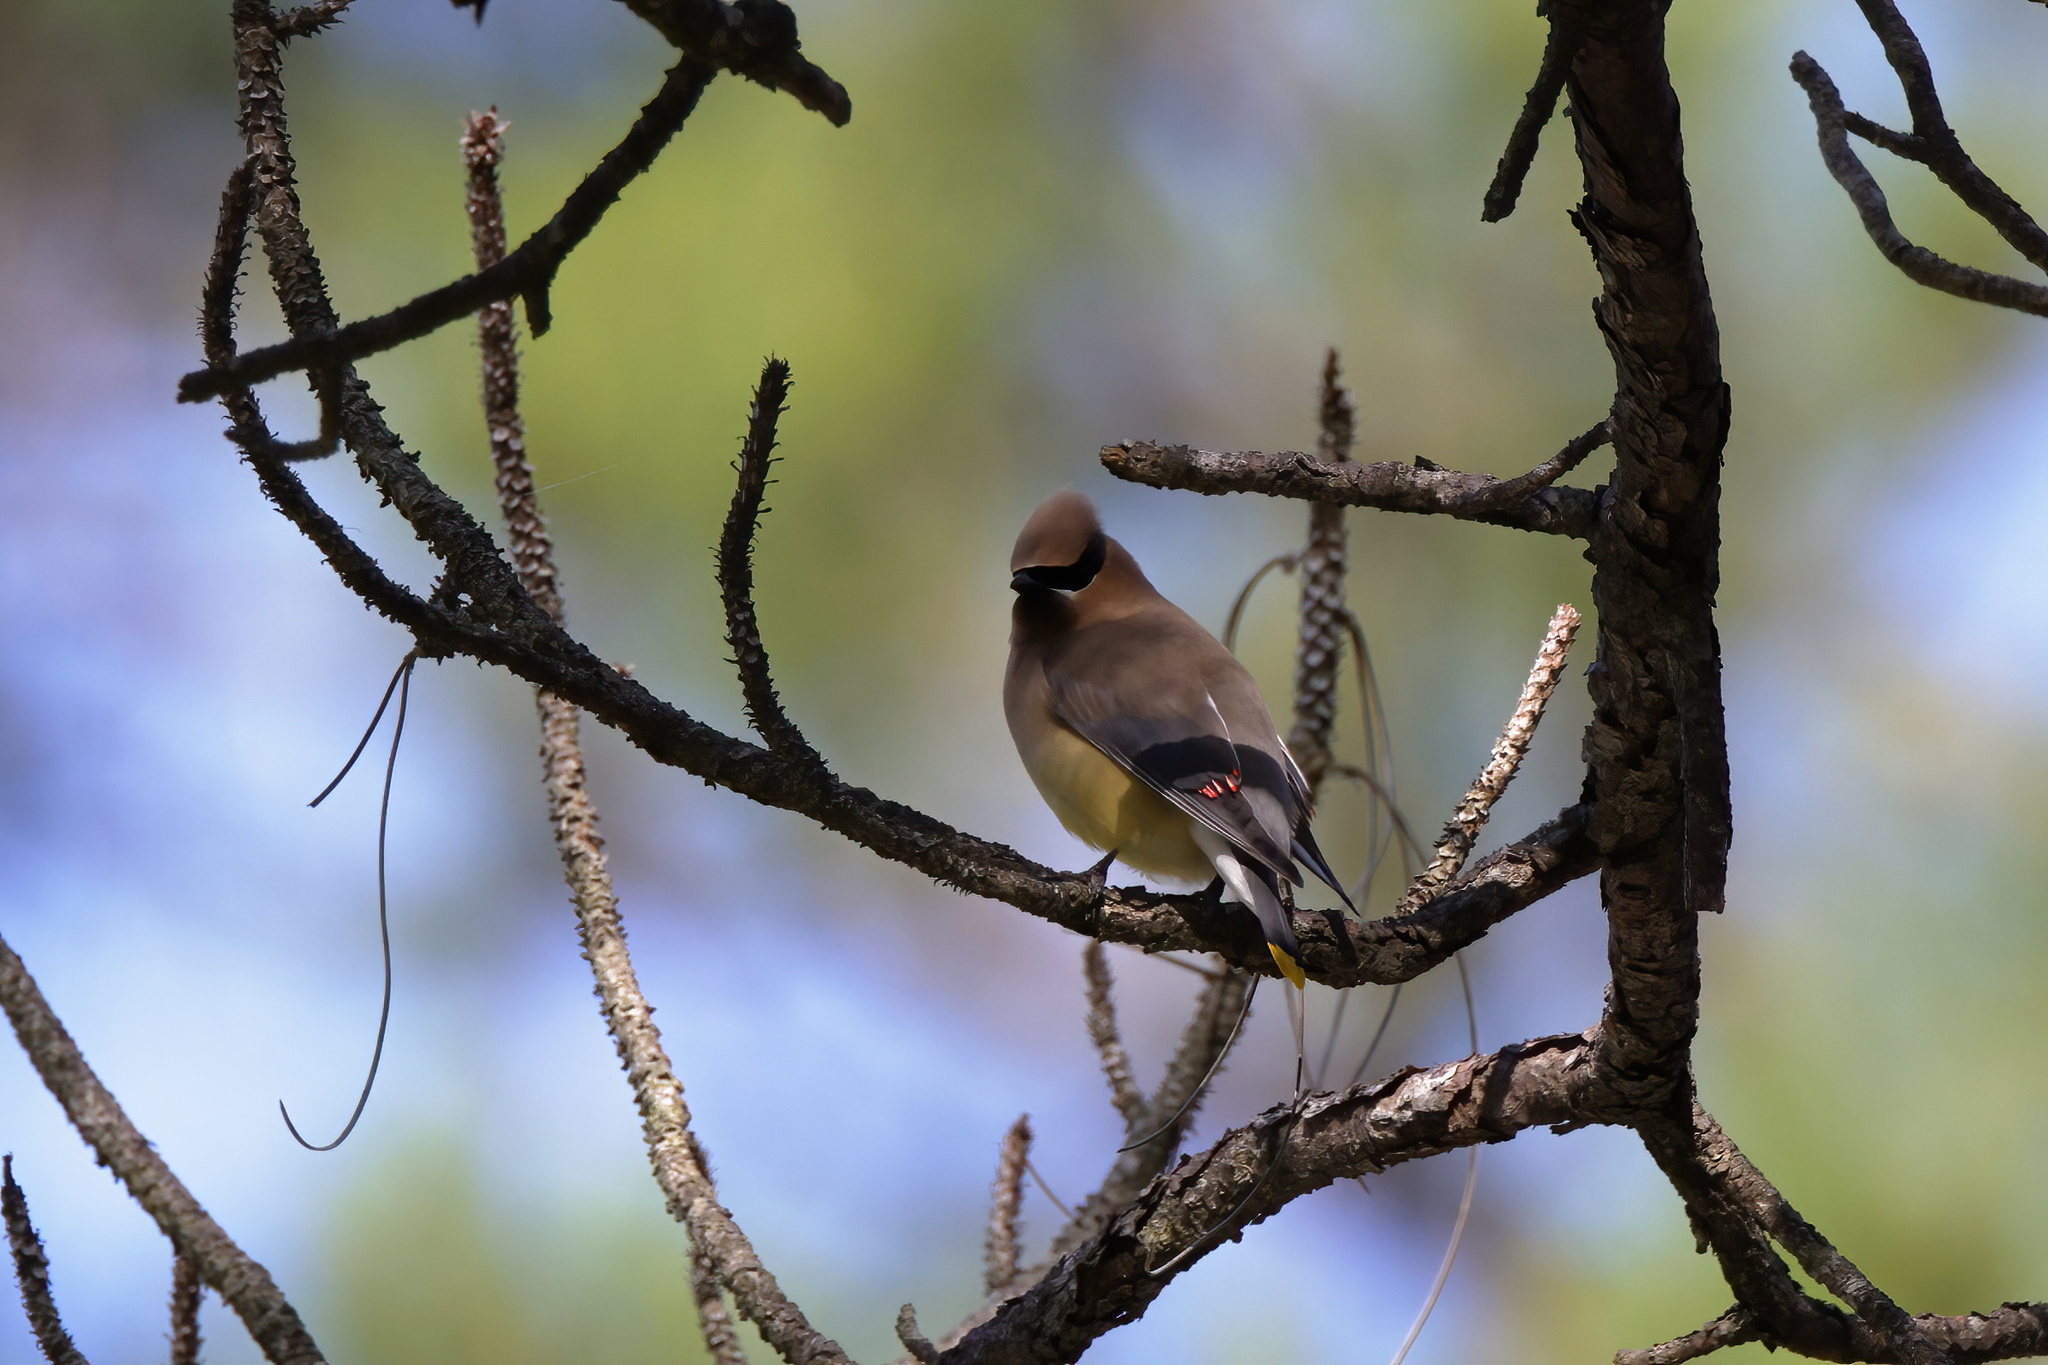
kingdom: Animalia
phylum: Chordata
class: Aves
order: Passeriformes
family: Bombycillidae
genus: Bombycilla
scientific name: Bombycilla cedrorum
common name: Cedar waxwing
